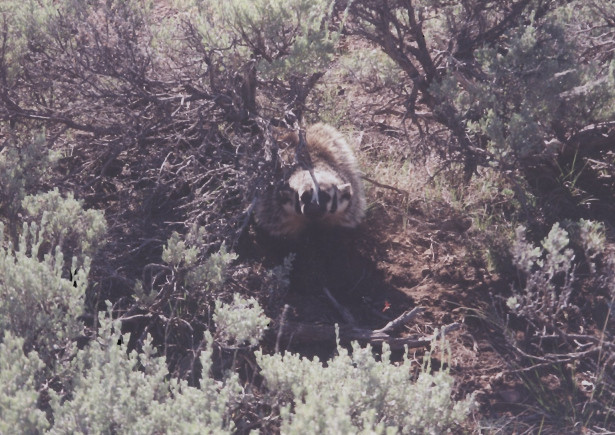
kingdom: Animalia
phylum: Chordata
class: Mammalia
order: Carnivora
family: Mustelidae
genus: Taxidea
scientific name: Taxidea taxus
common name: American badger
